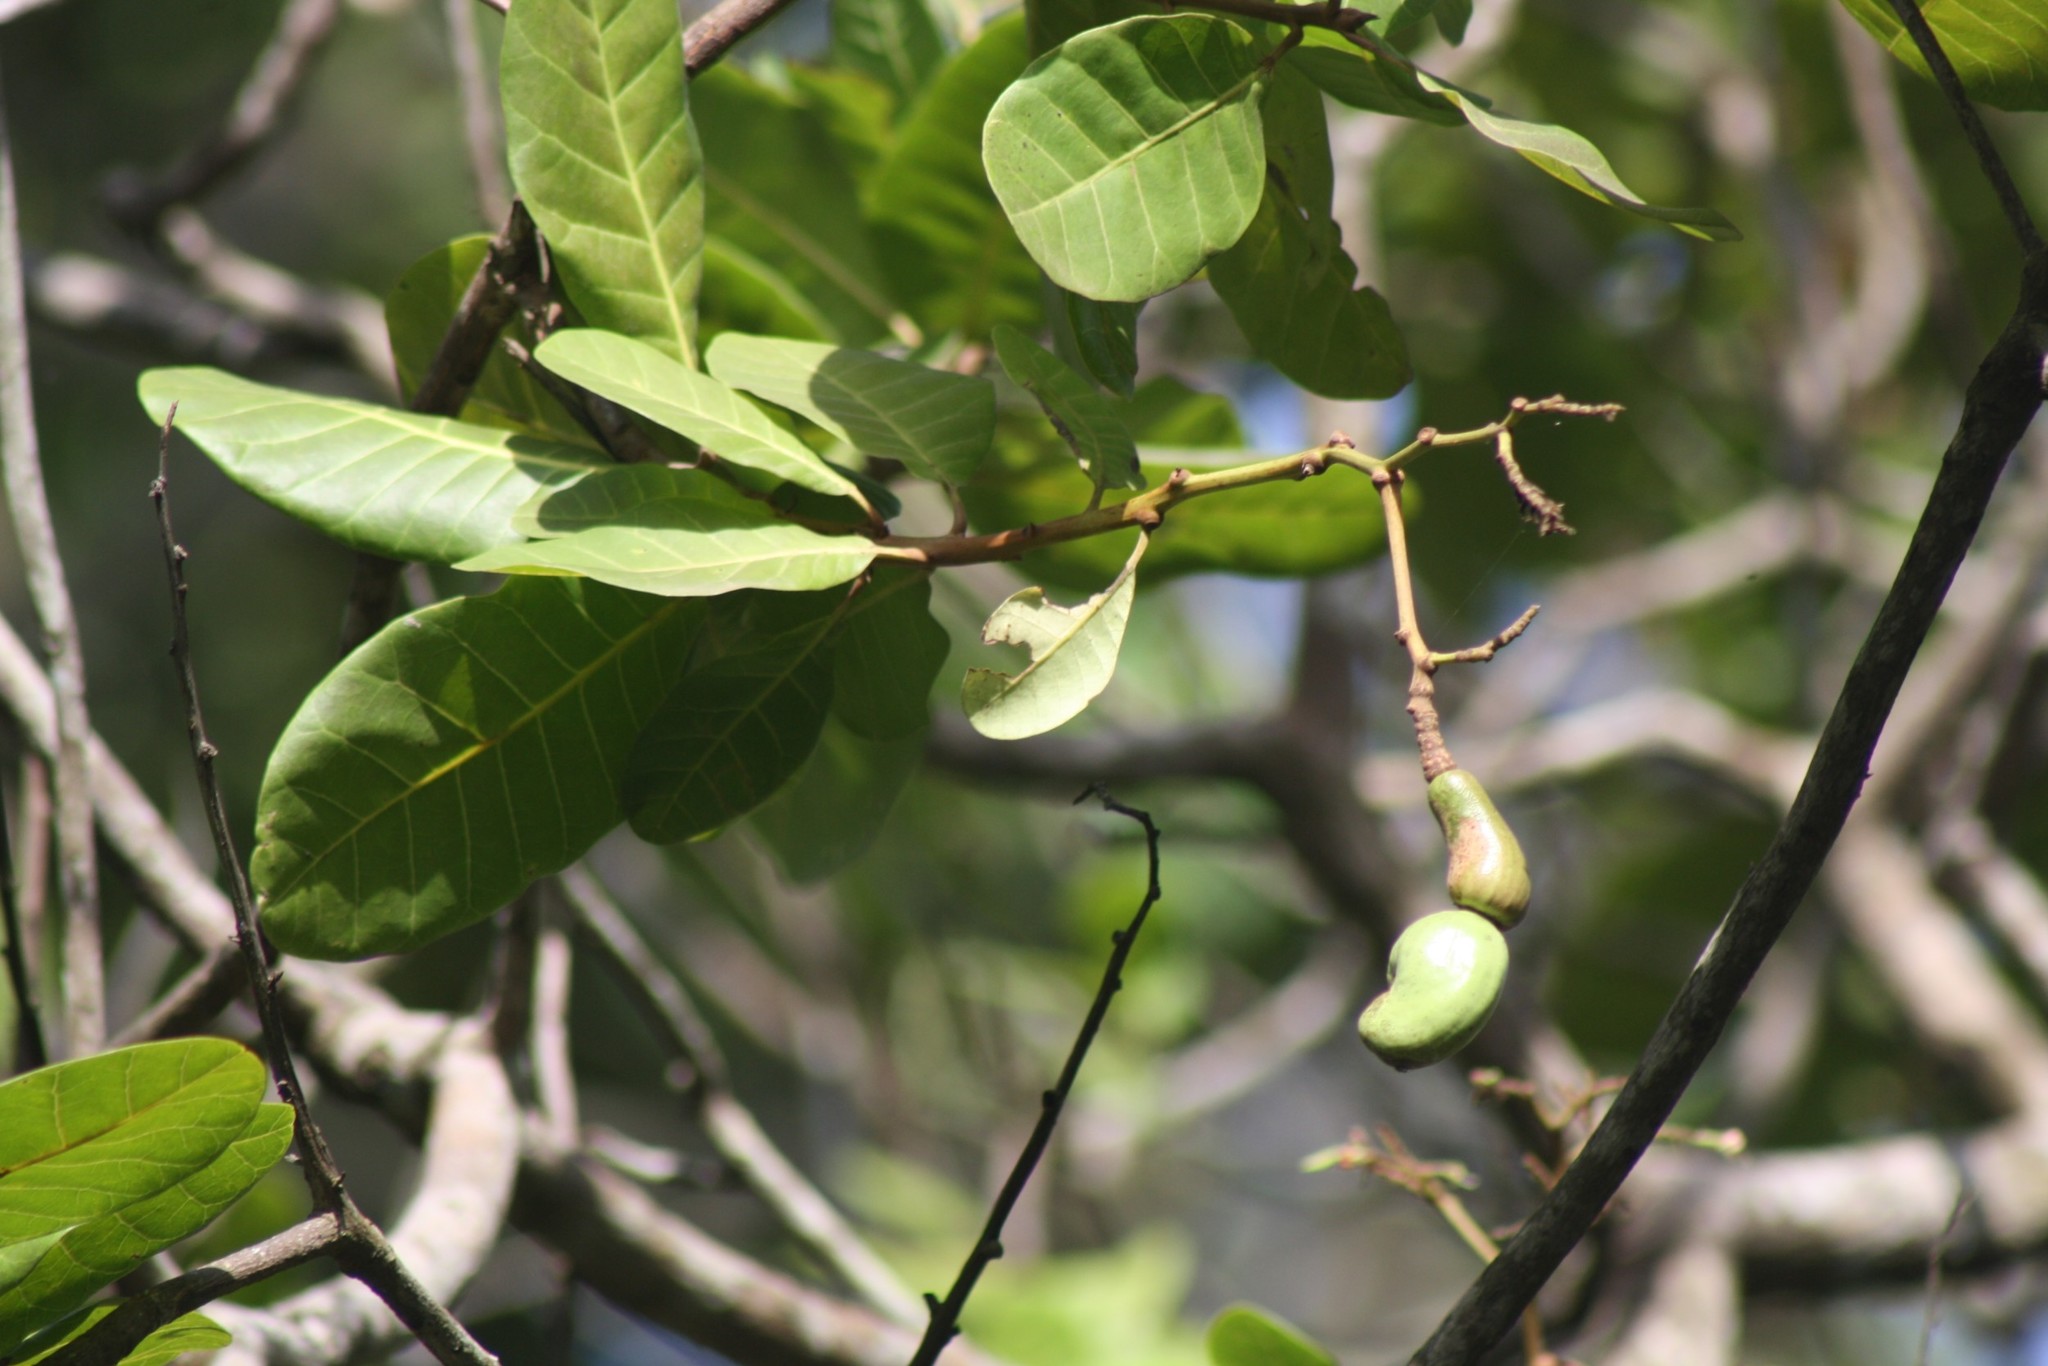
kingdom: Plantae
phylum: Tracheophyta
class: Magnoliopsida
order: Sapindales
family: Anacardiaceae
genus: Anacardium
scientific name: Anacardium occidentale
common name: Cashew
